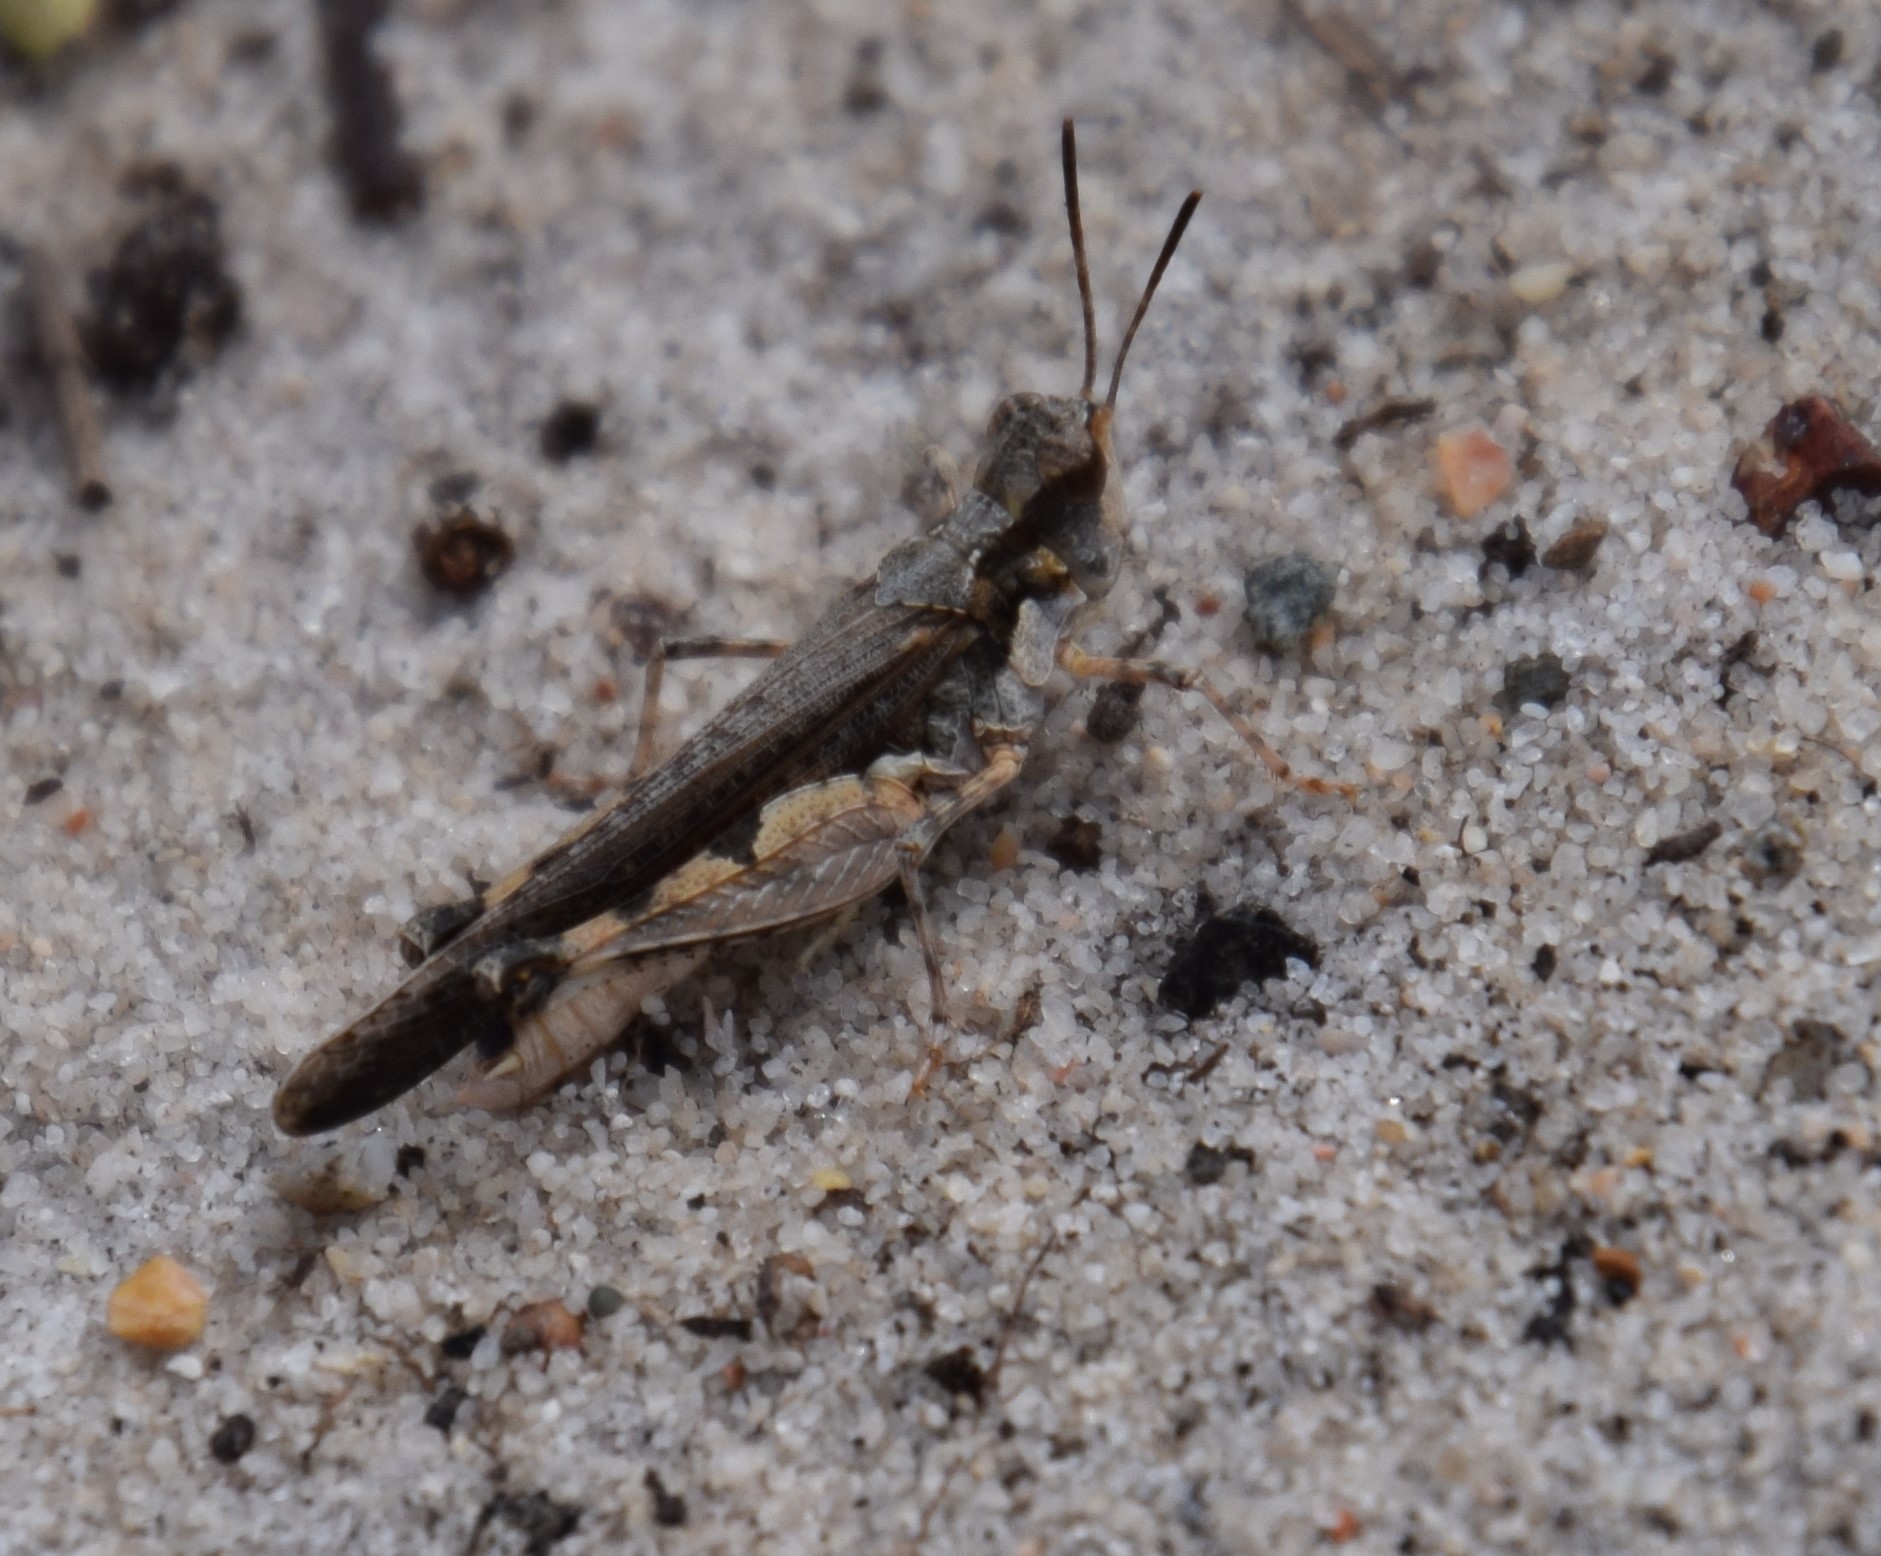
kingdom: Animalia
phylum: Arthropoda
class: Insecta
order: Orthoptera
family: Acrididae
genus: Pycnostictus
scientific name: Pycnostictus seriatus
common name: Common bandwing
